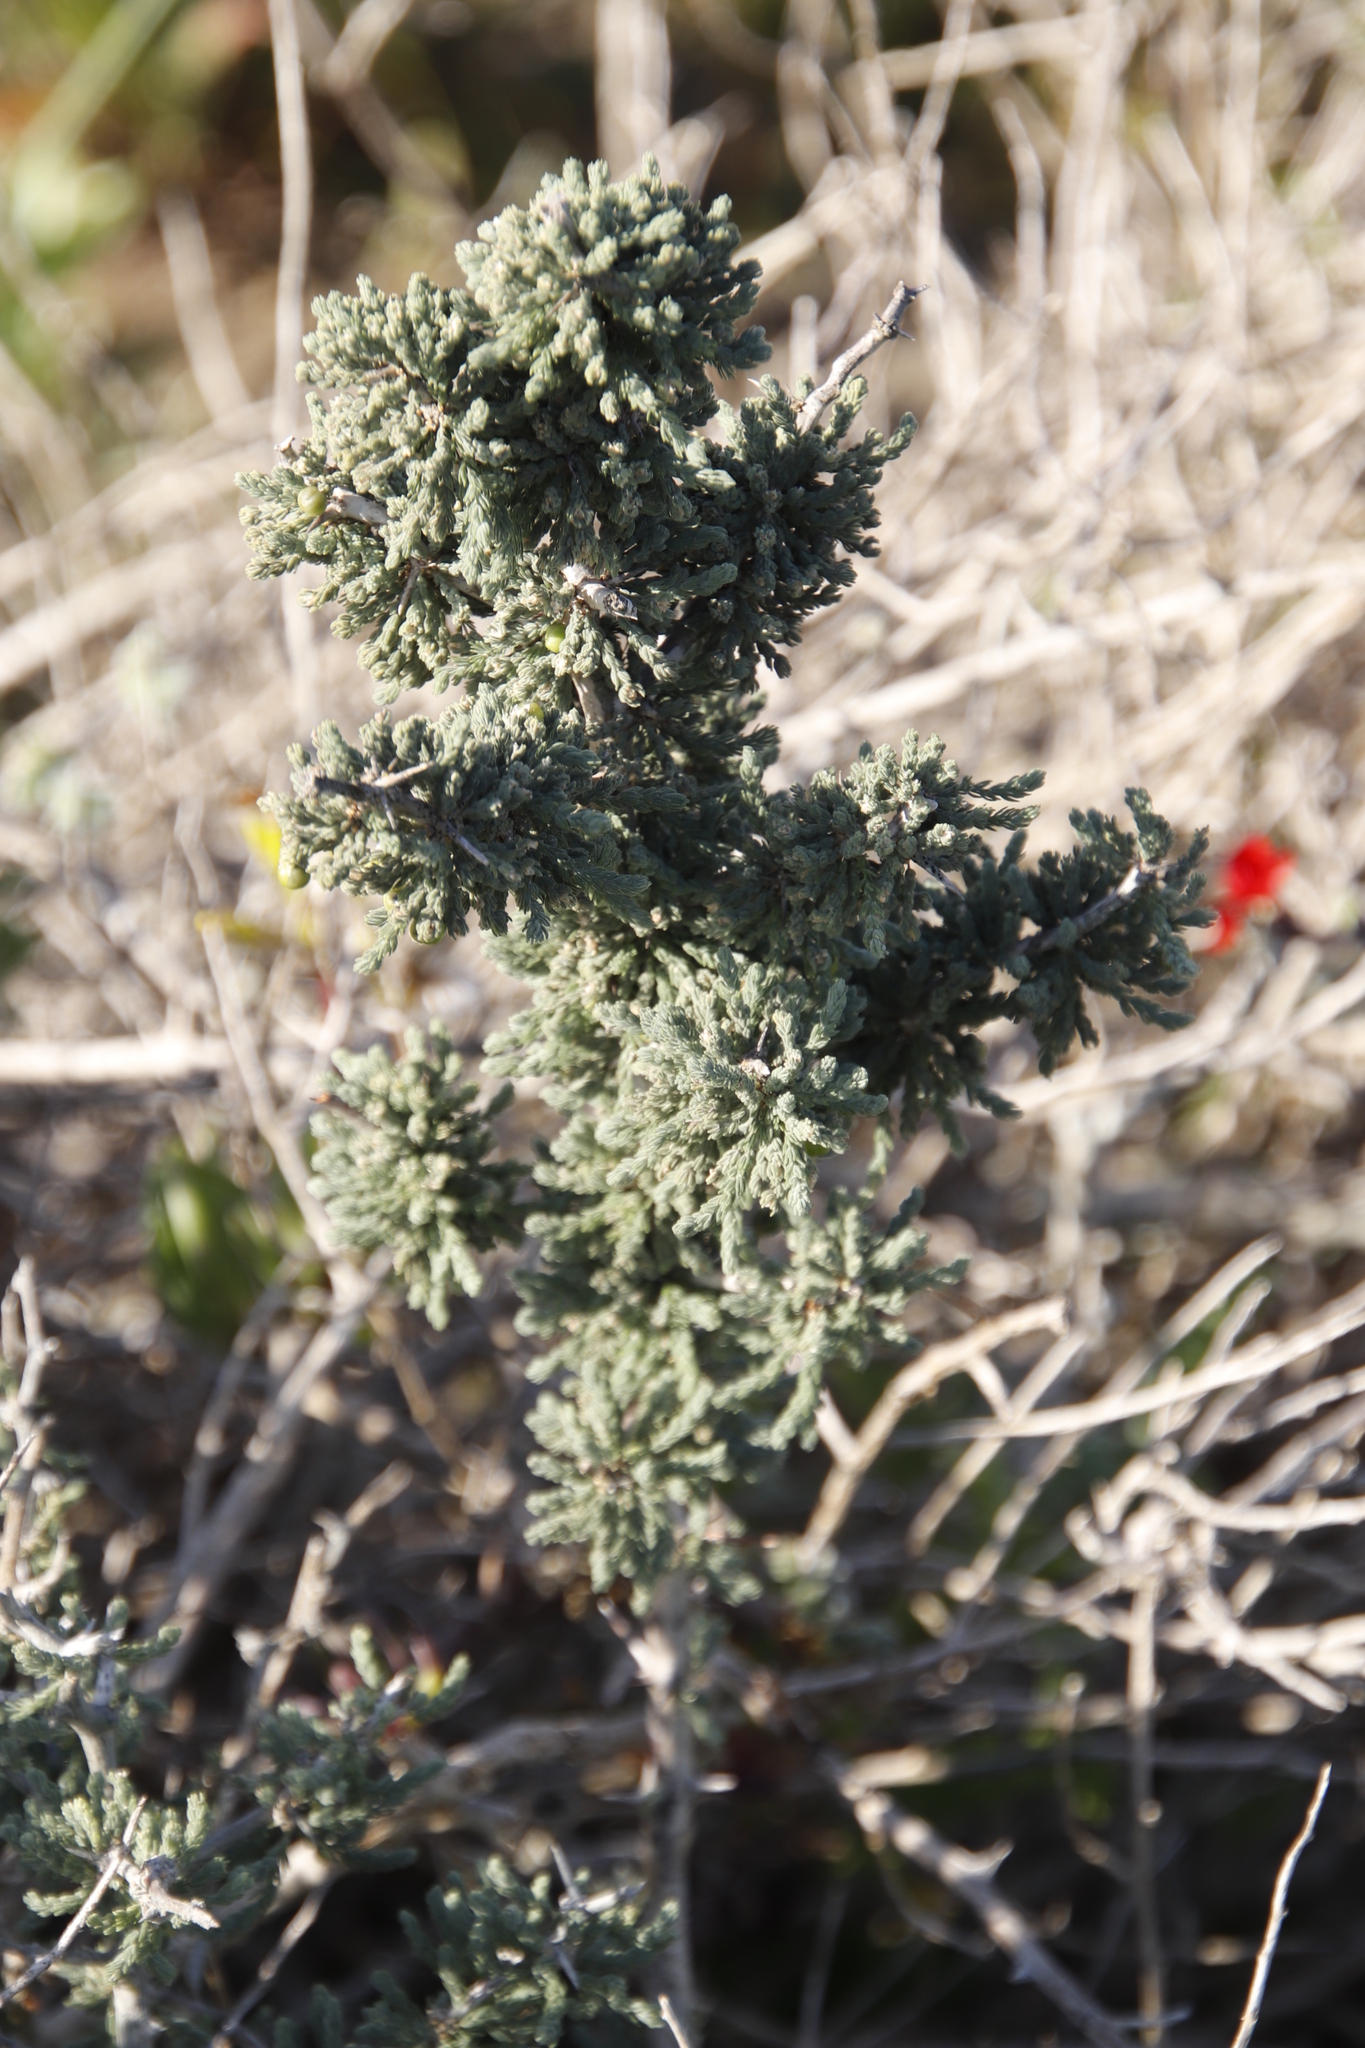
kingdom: Plantae
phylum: Tracheophyta
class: Liliopsida
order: Asparagales
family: Asparagaceae
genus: Asparagus
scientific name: Asparagus capensis
